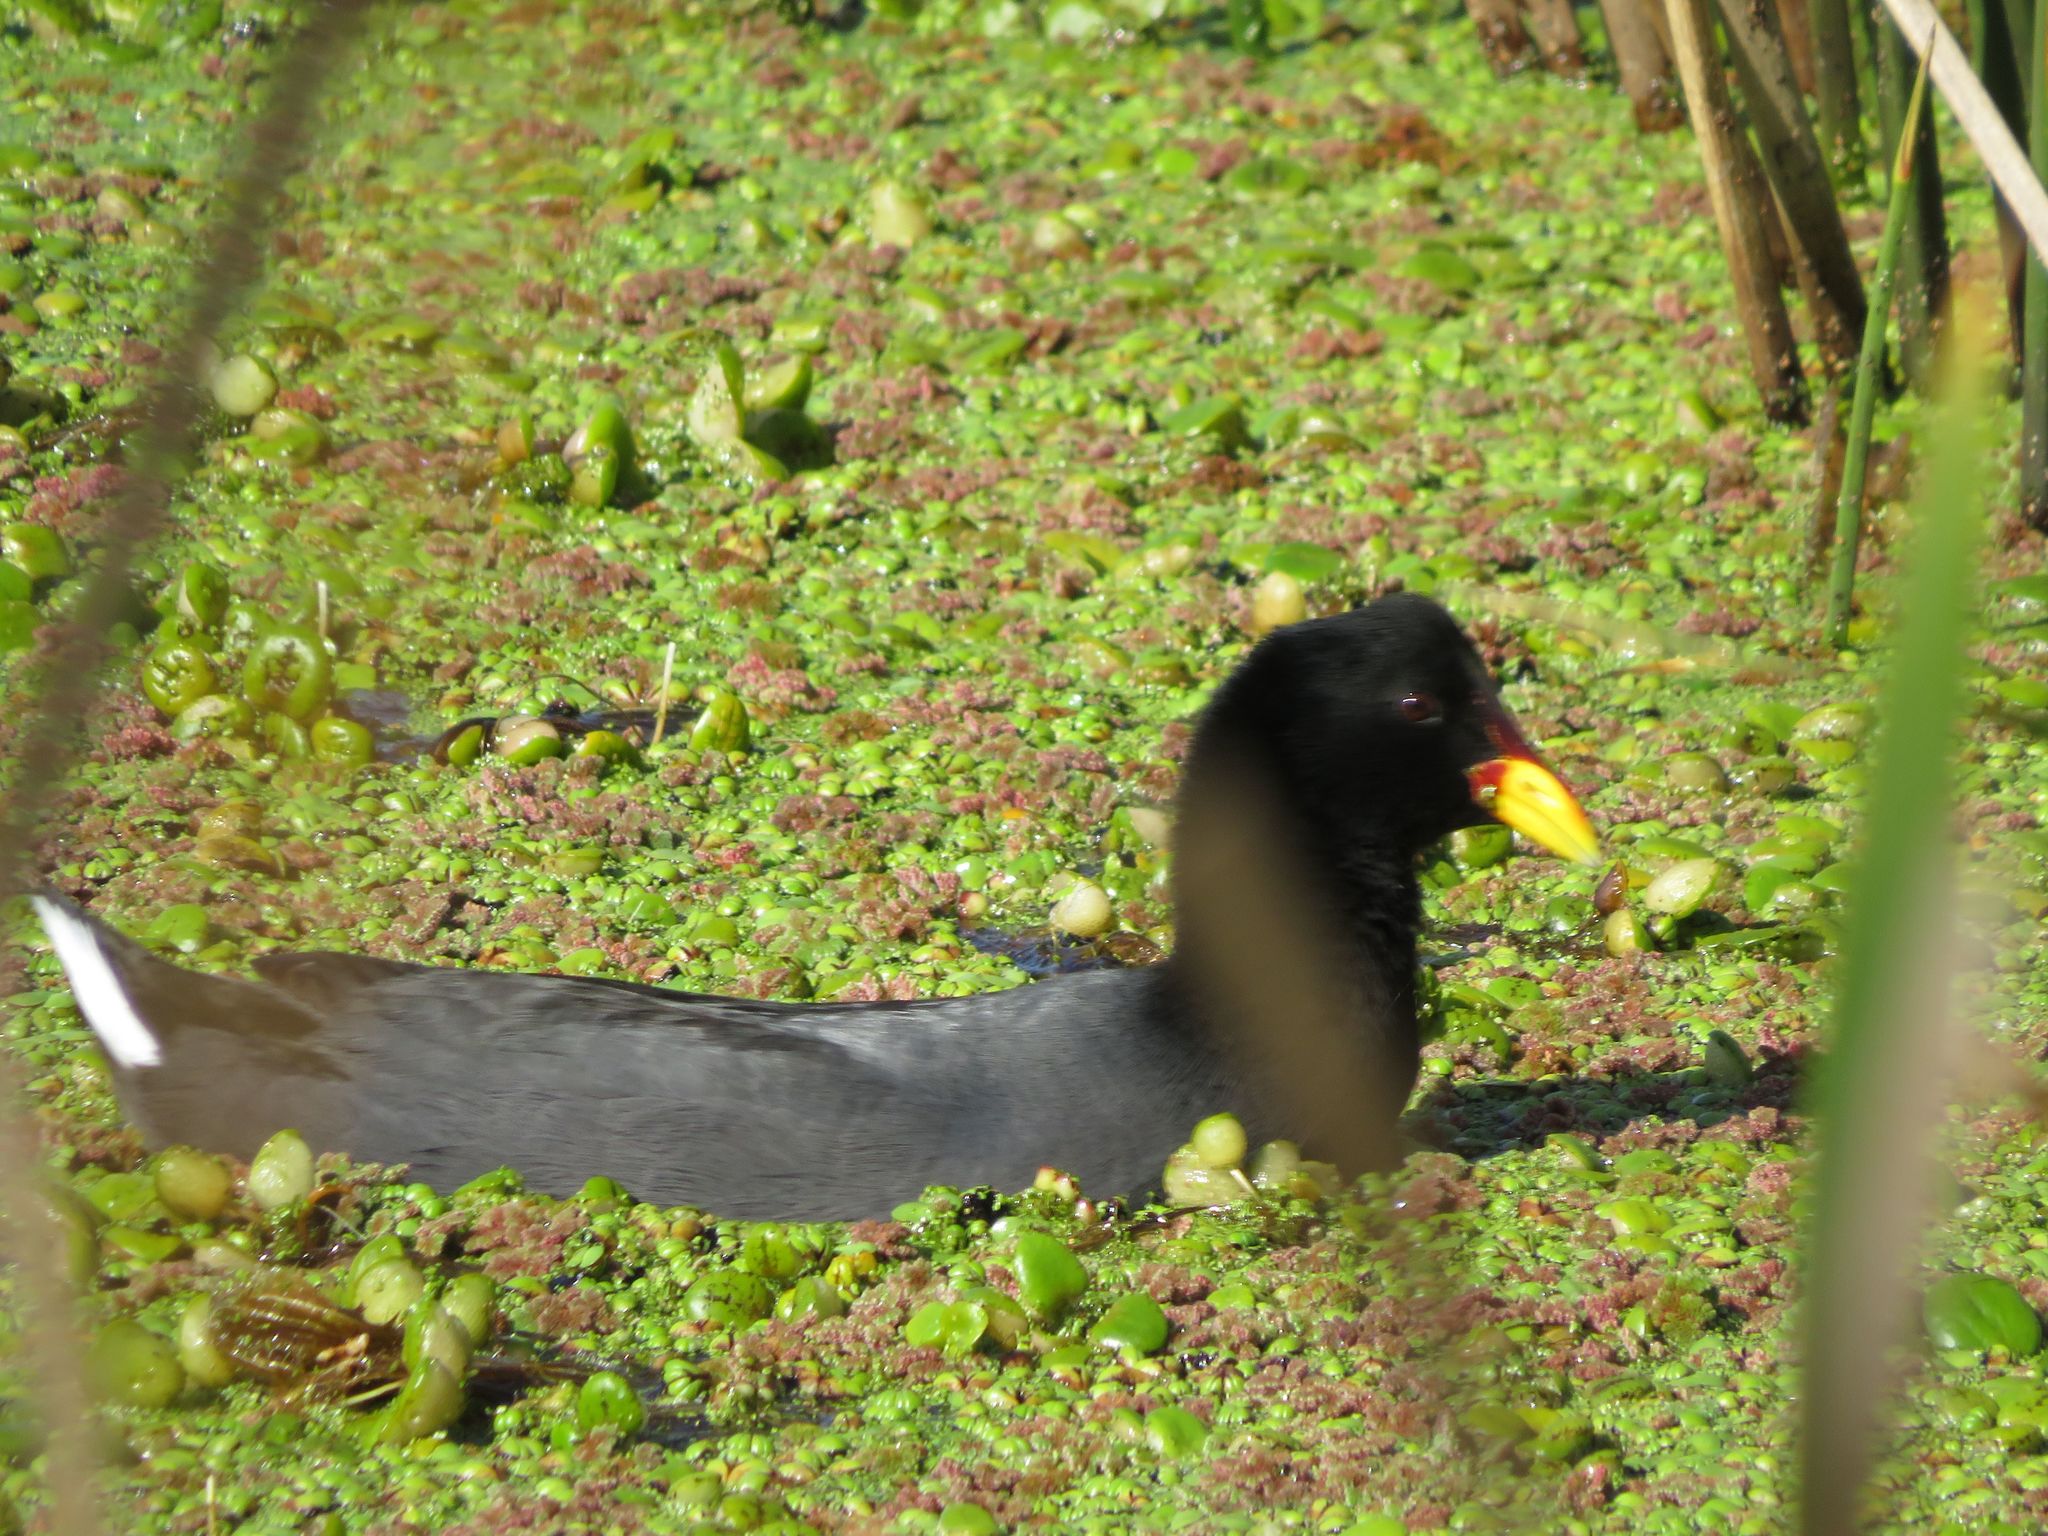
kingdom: Animalia
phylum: Chordata
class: Aves
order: Gruiformes
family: Rallidae
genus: Fulica
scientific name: Fulica rufifrons
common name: Red-fronted coot
